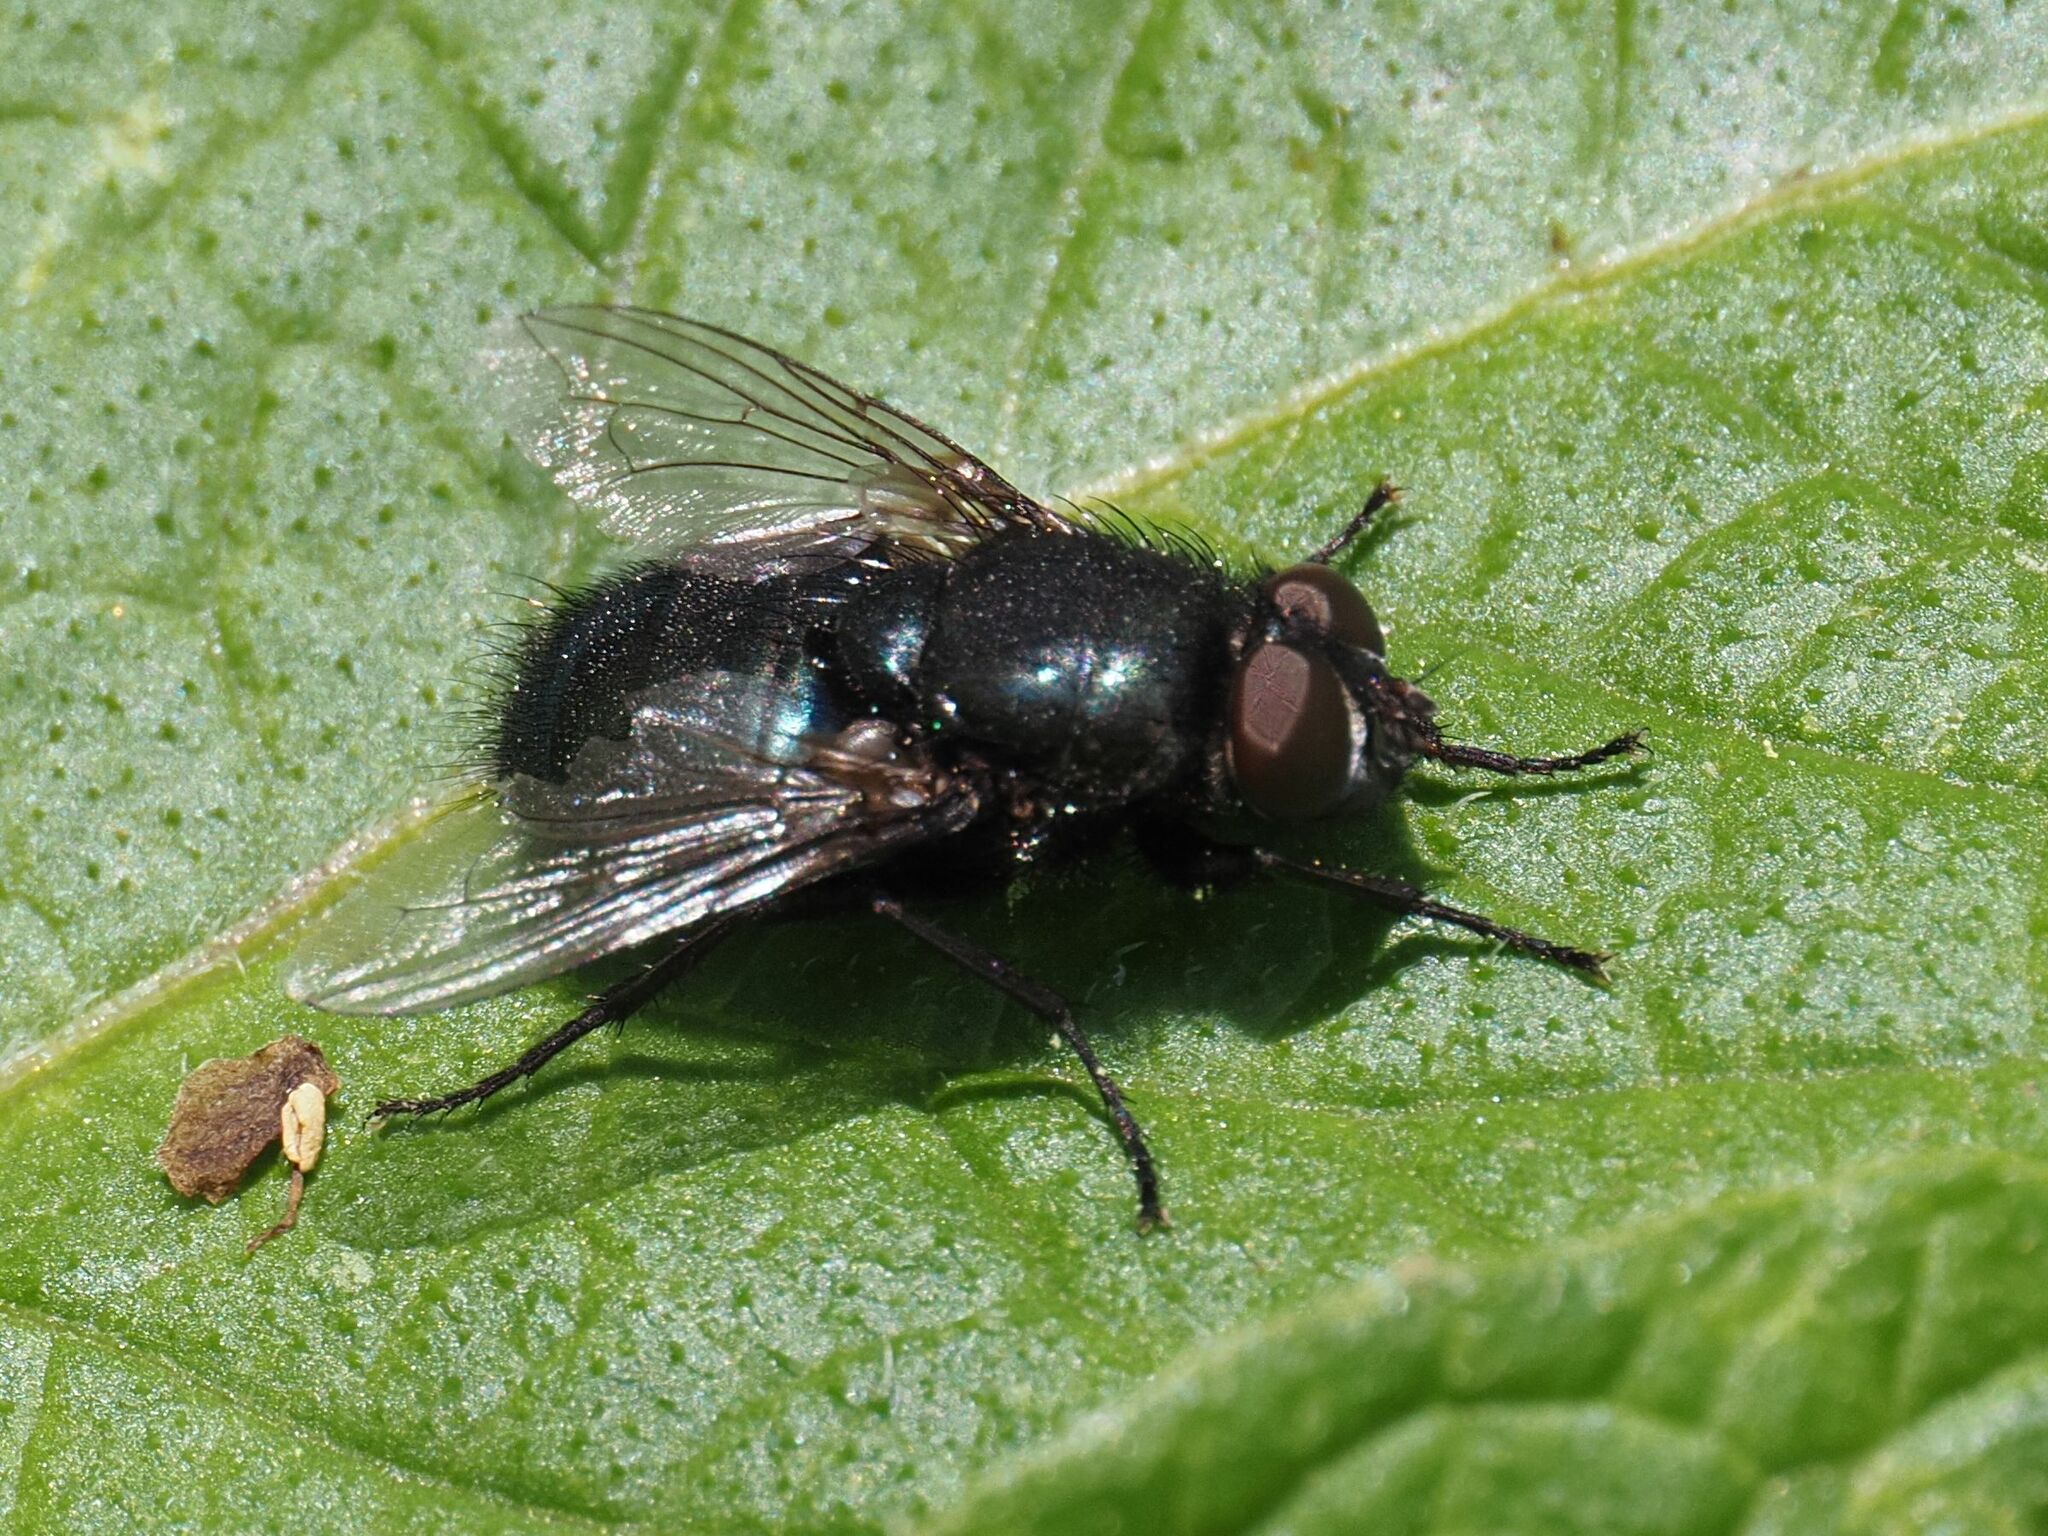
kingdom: Animalia
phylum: Arthropoda
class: Insecta
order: Diptera
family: Calliphoridae
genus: Protophormia
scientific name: Protophormia terraenovae
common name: Blackbottle
